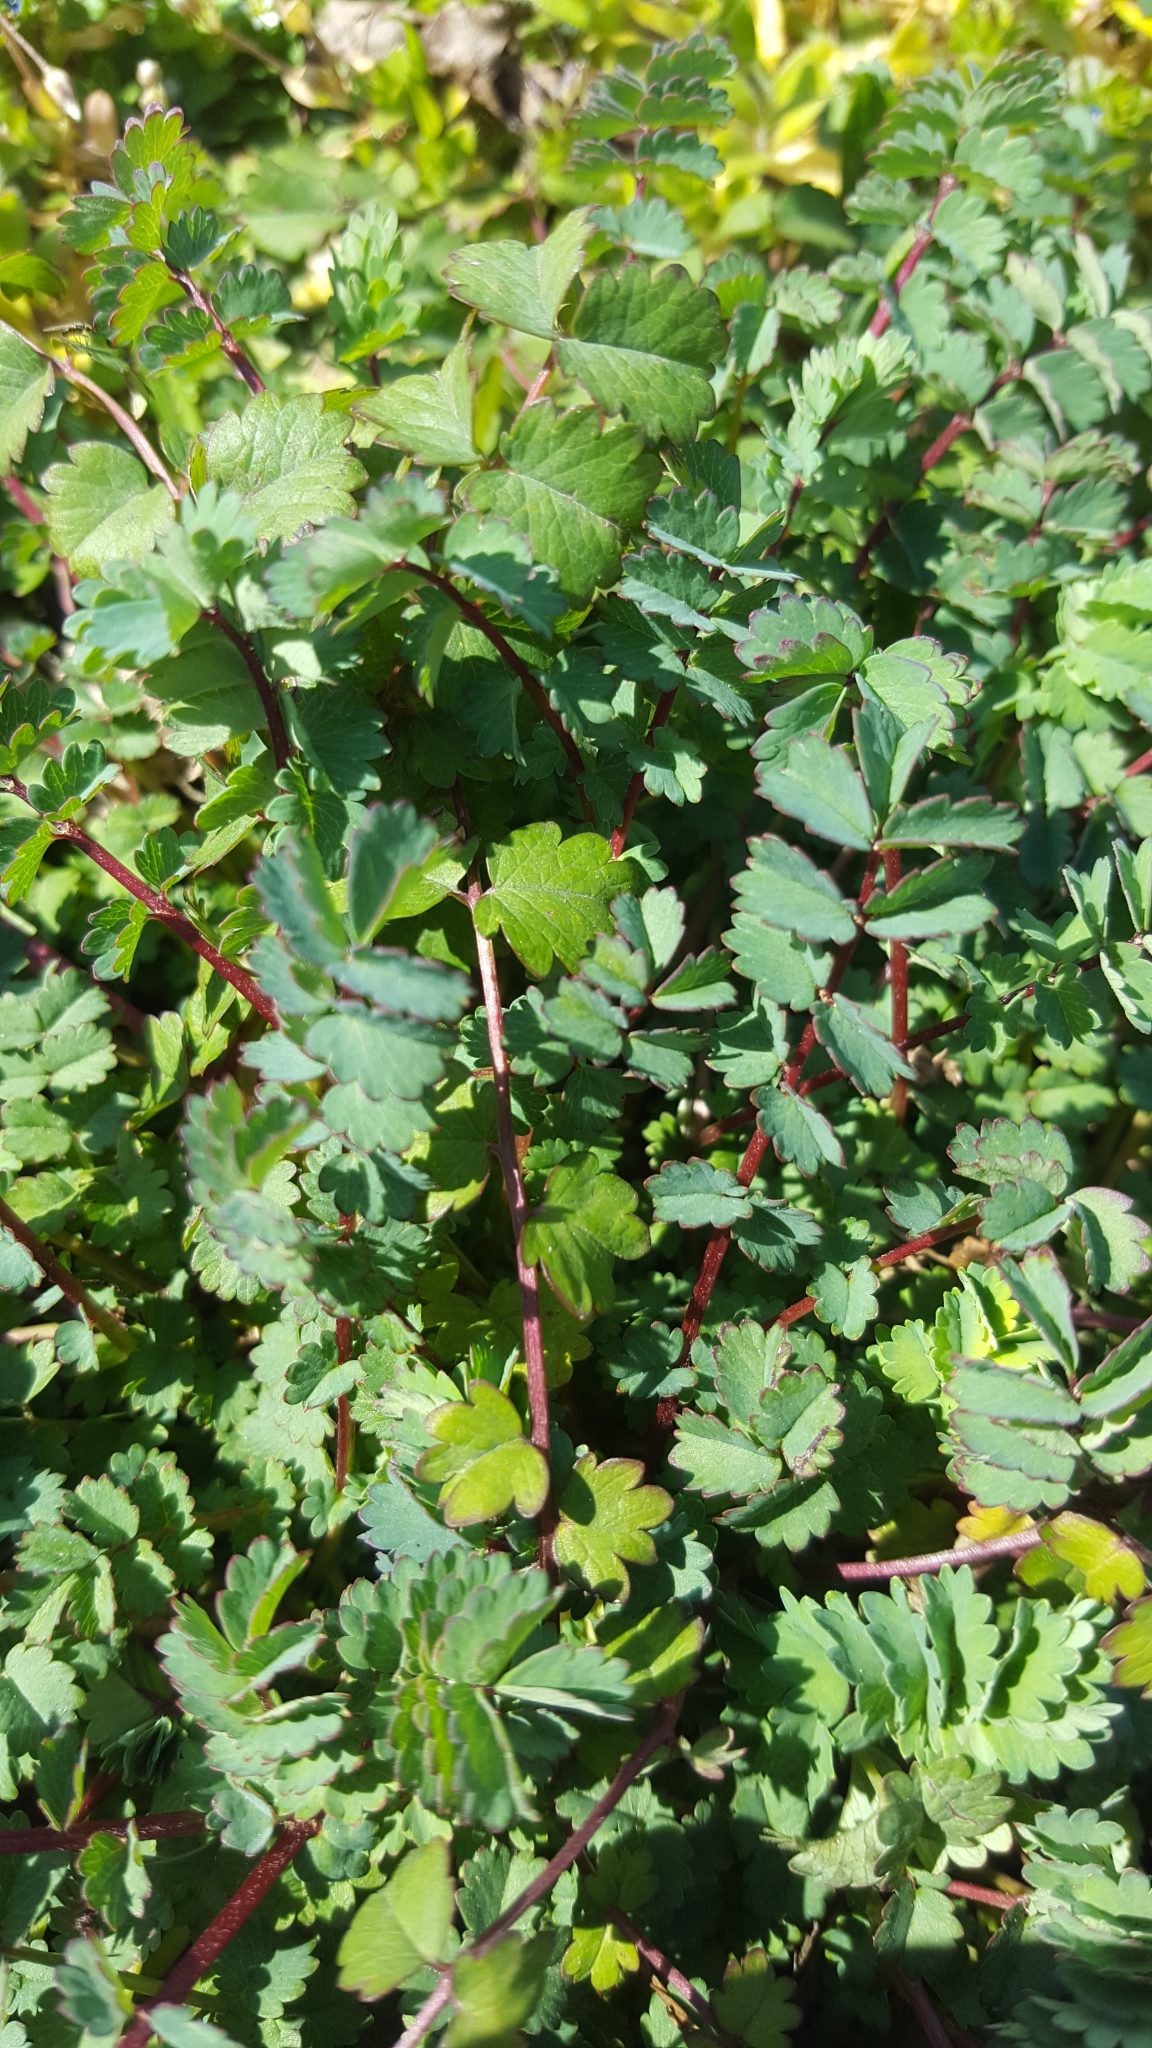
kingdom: Plantae
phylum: Tracheophyta
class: Magnoliopsida
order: Rosales
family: Rosaceae
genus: Poterium
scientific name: Poterium sanguisorba
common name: Salad burnet
